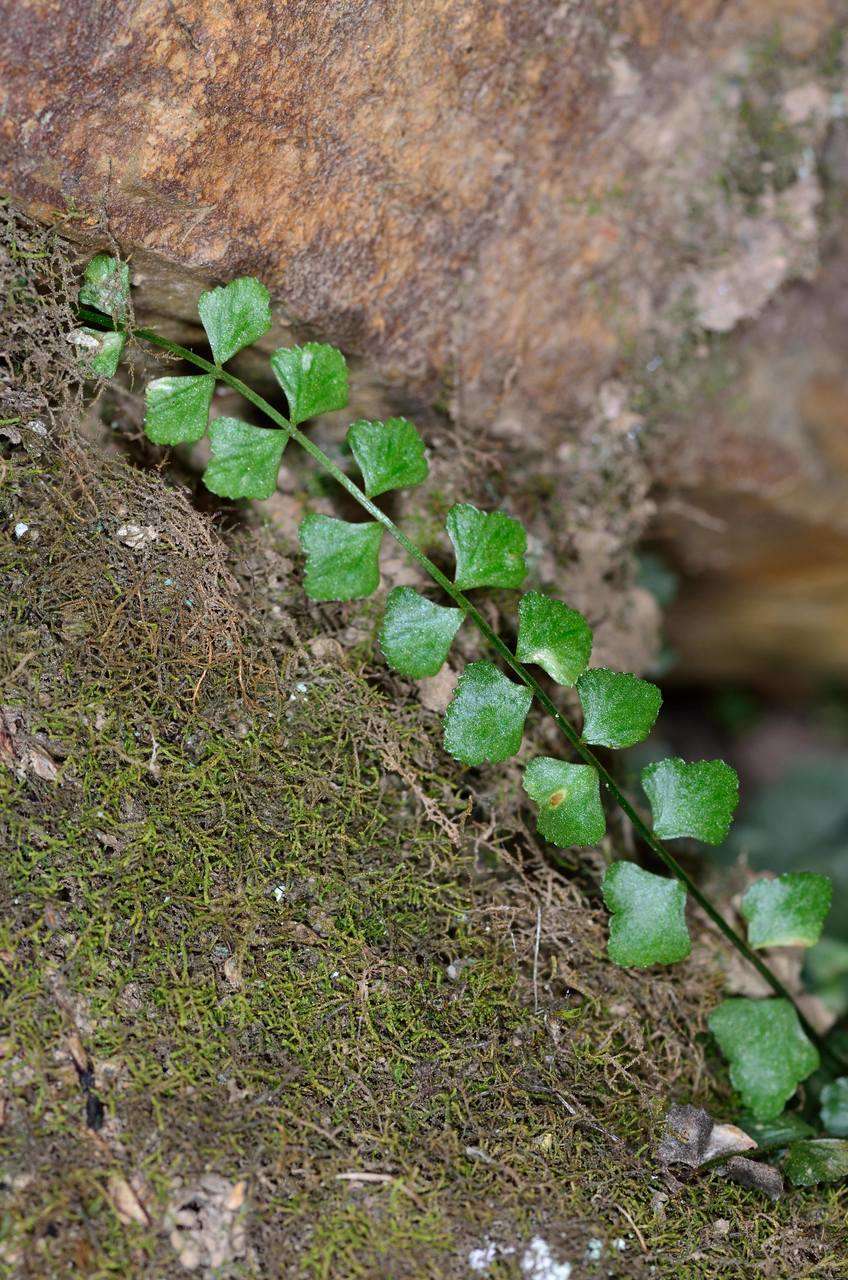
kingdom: Plantae
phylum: Tracheophyta
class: Polypodiopsida
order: Polypodiales
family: Aspleniaceae
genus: Asplenium
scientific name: Asplenium flabellifolium
